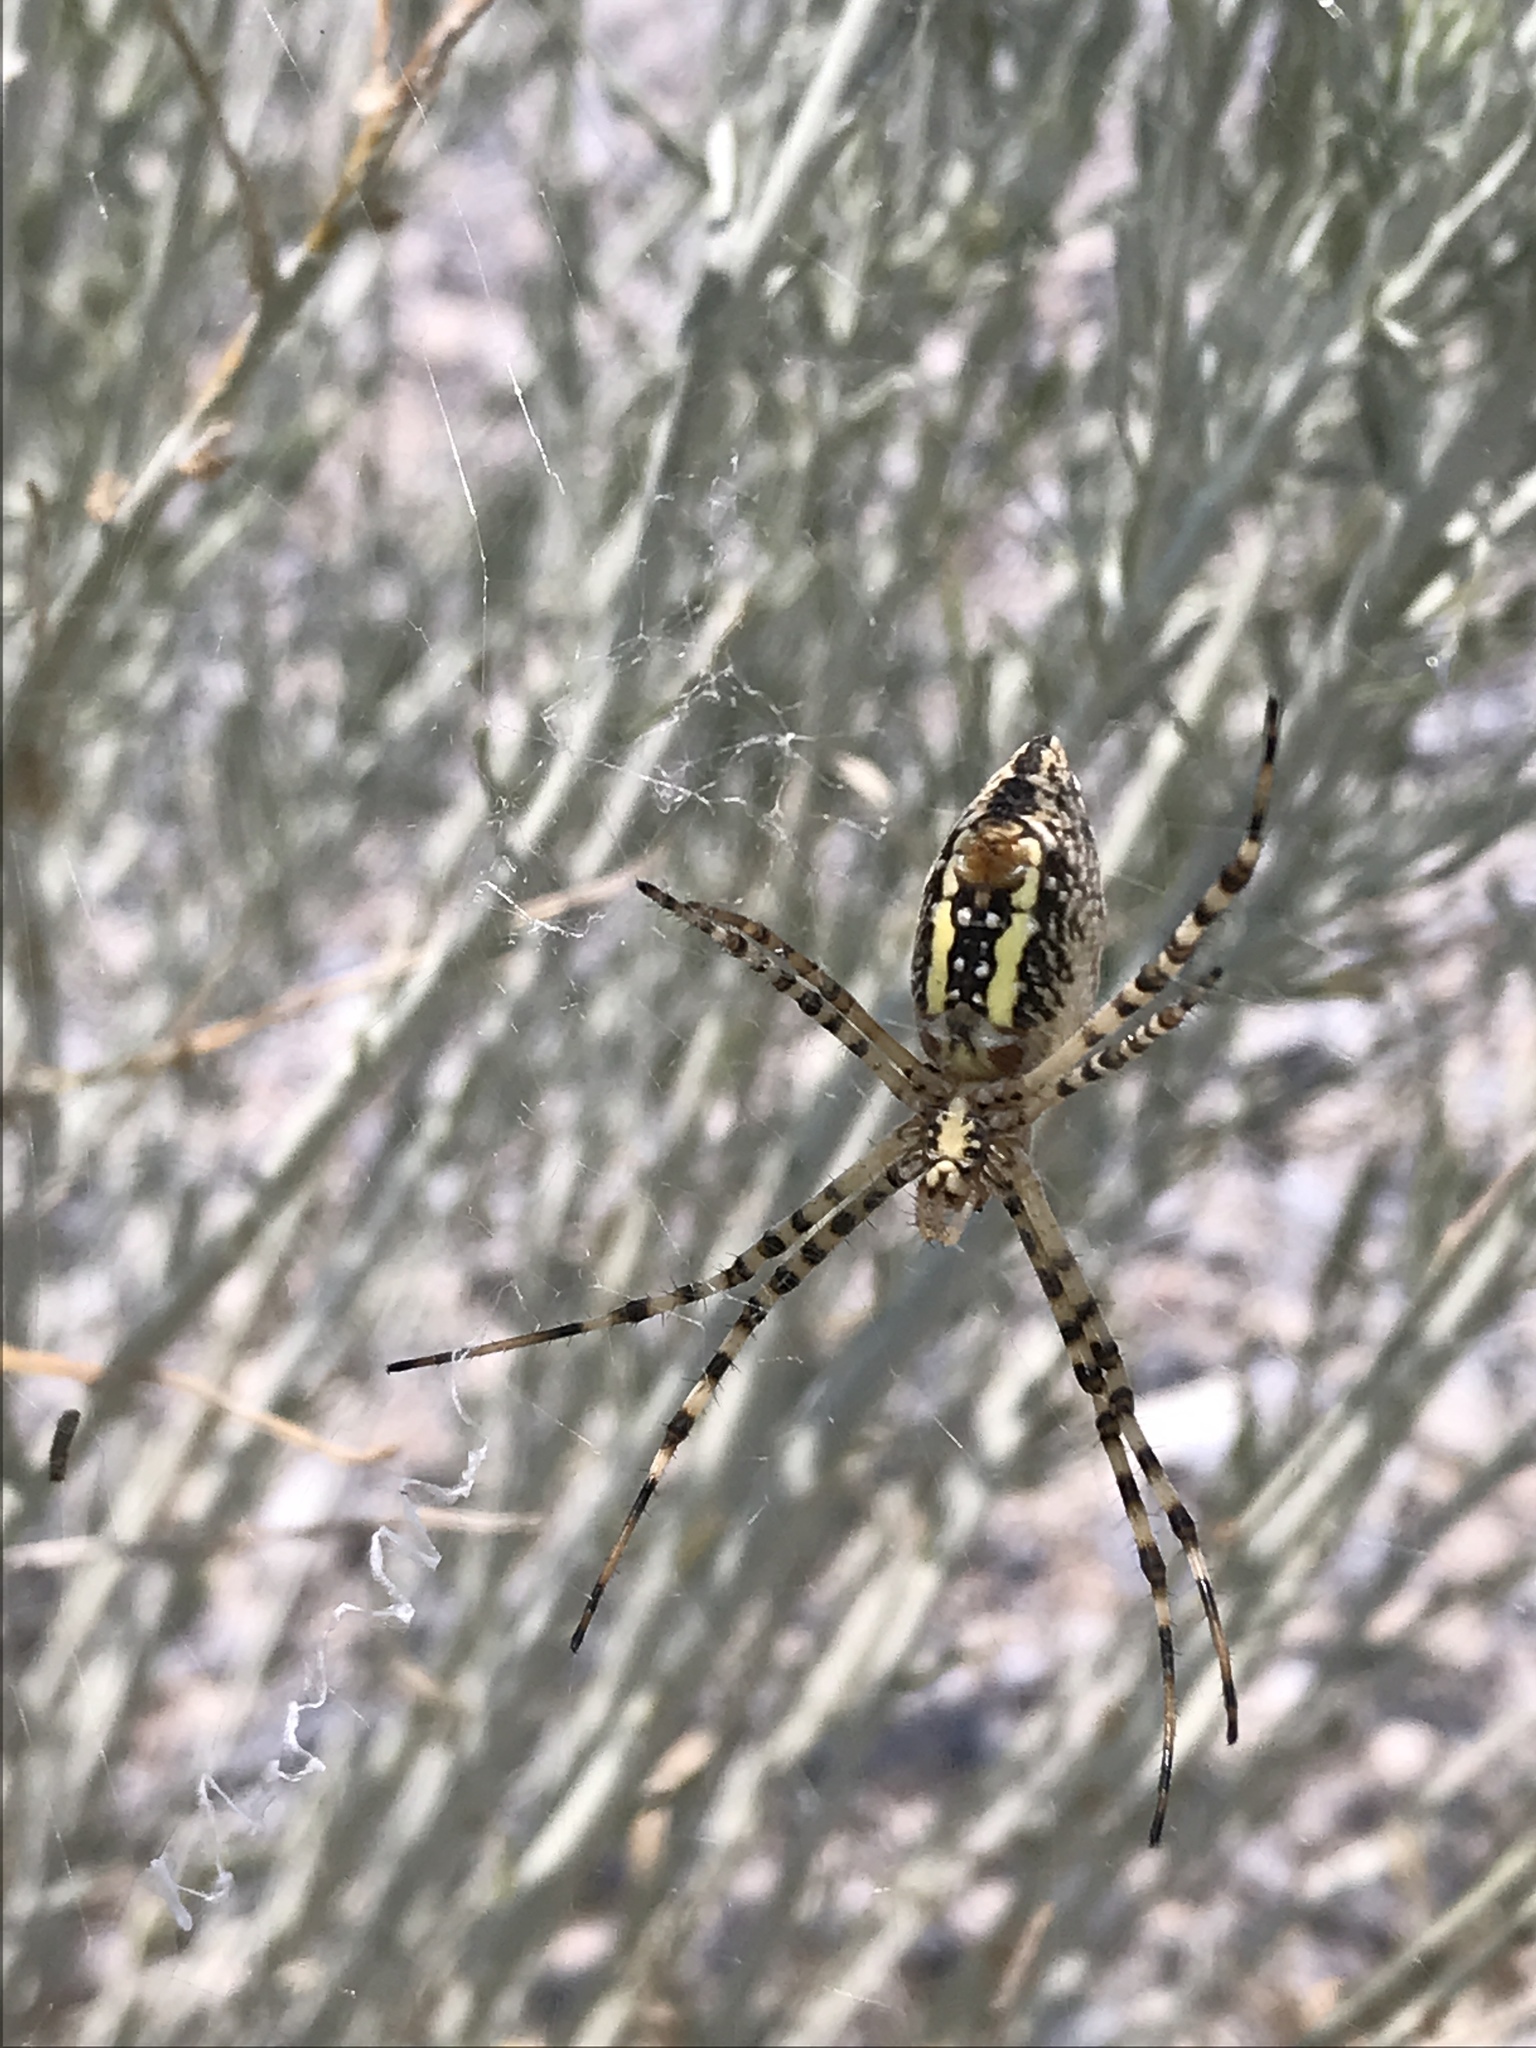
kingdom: Animalia
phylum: Arthropoda
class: Arachnida
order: Araneae
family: Araneidae
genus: Argiope
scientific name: Argiope trifasciata
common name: Banded garden spider
